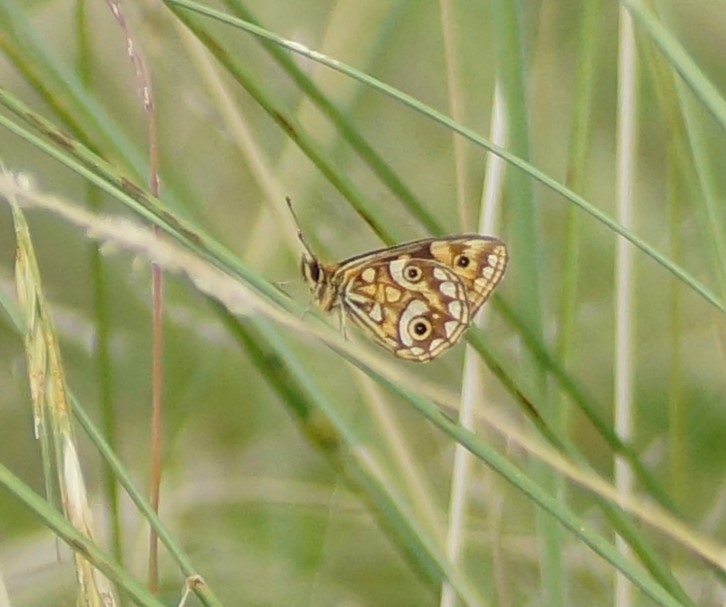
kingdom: Animalia
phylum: Arthropoda
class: Insecta
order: Lepidoptera
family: Nymphalidae
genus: Oreixenica
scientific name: Oreixenica lathoniella
